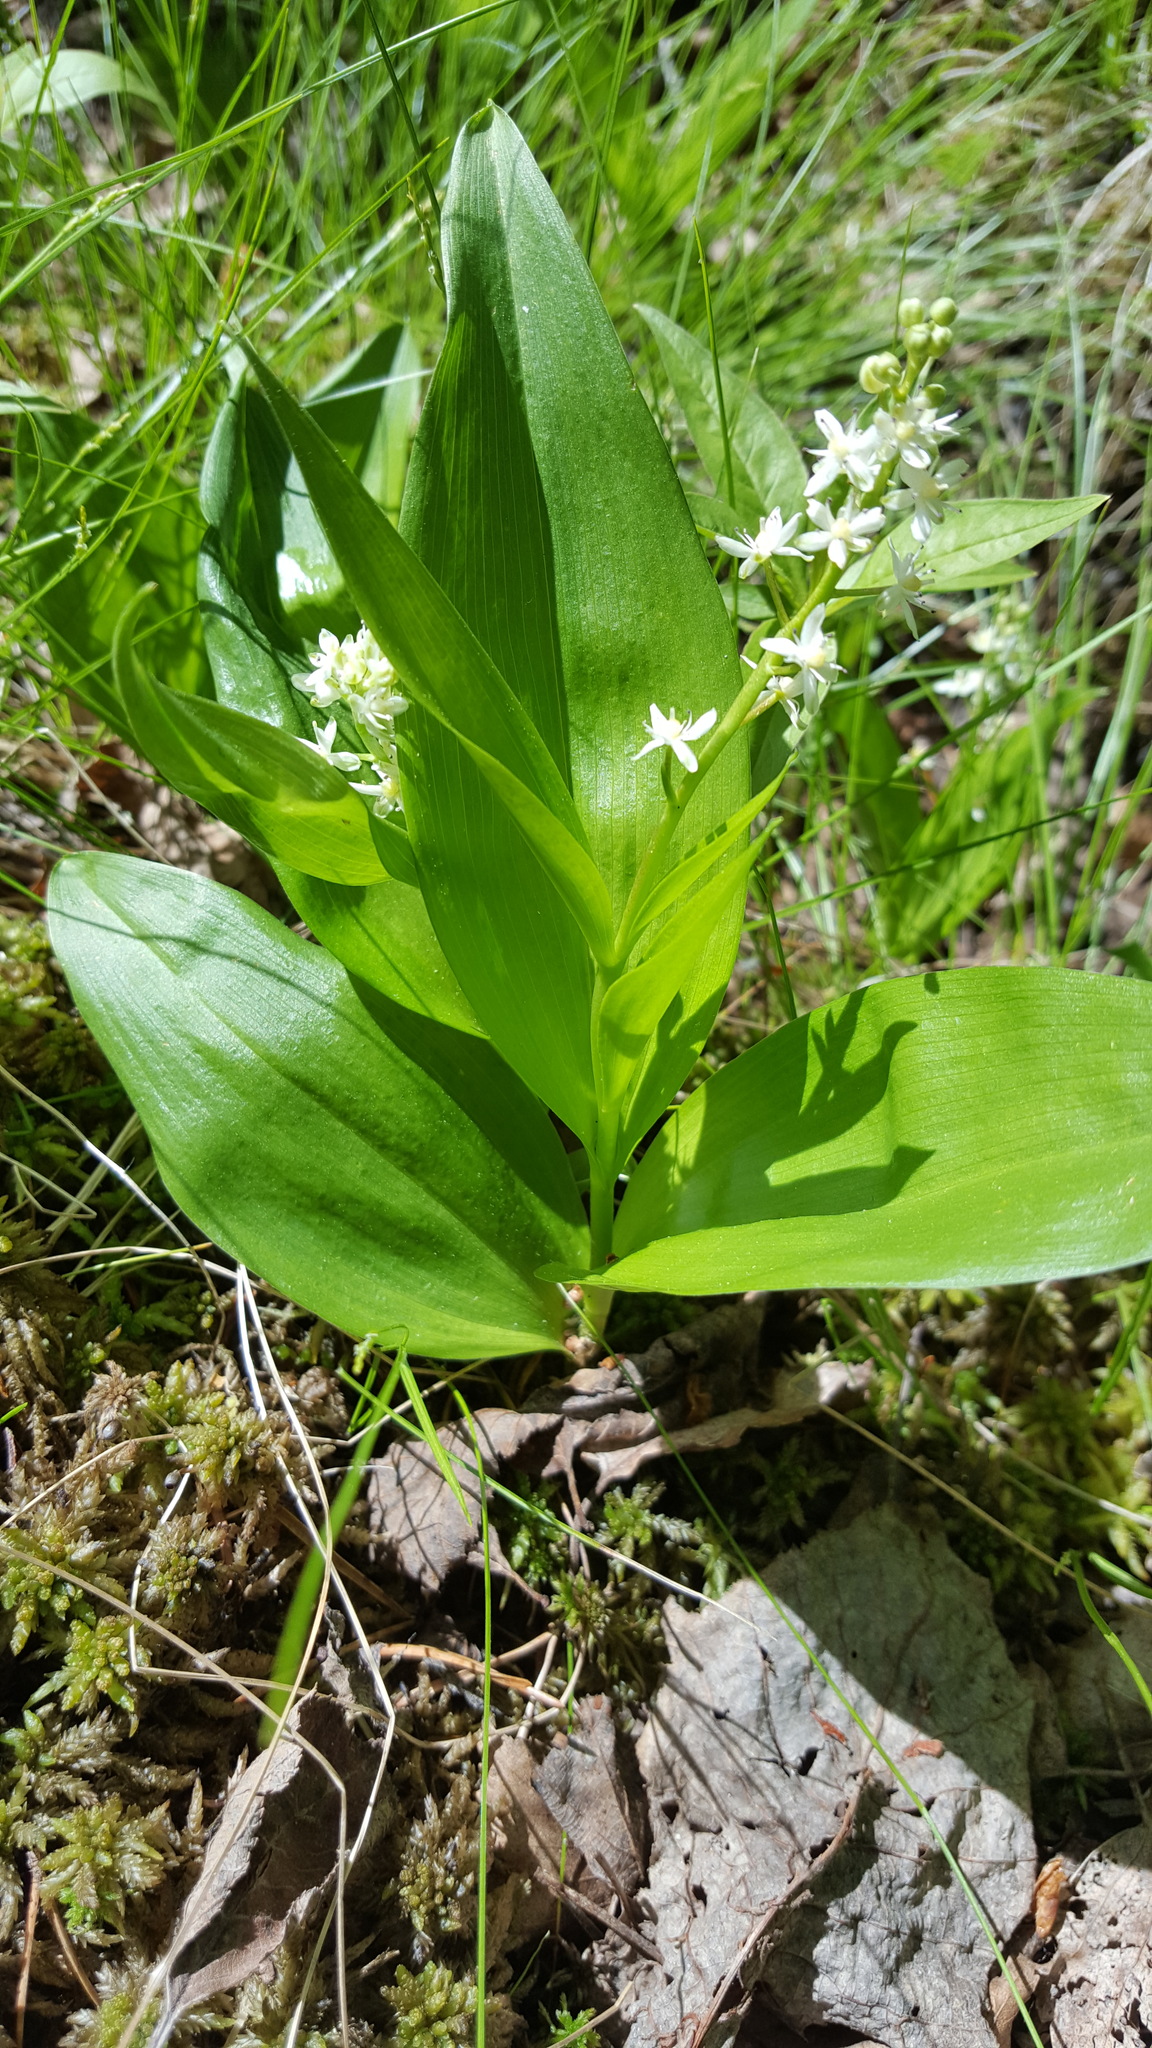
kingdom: Plantae
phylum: Tracheophyta
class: Liliopsida
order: Asparagales
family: Asparagaceae
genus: Maianthemum
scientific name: Maianthemum trifolium
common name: Swamp false solomon's seal
